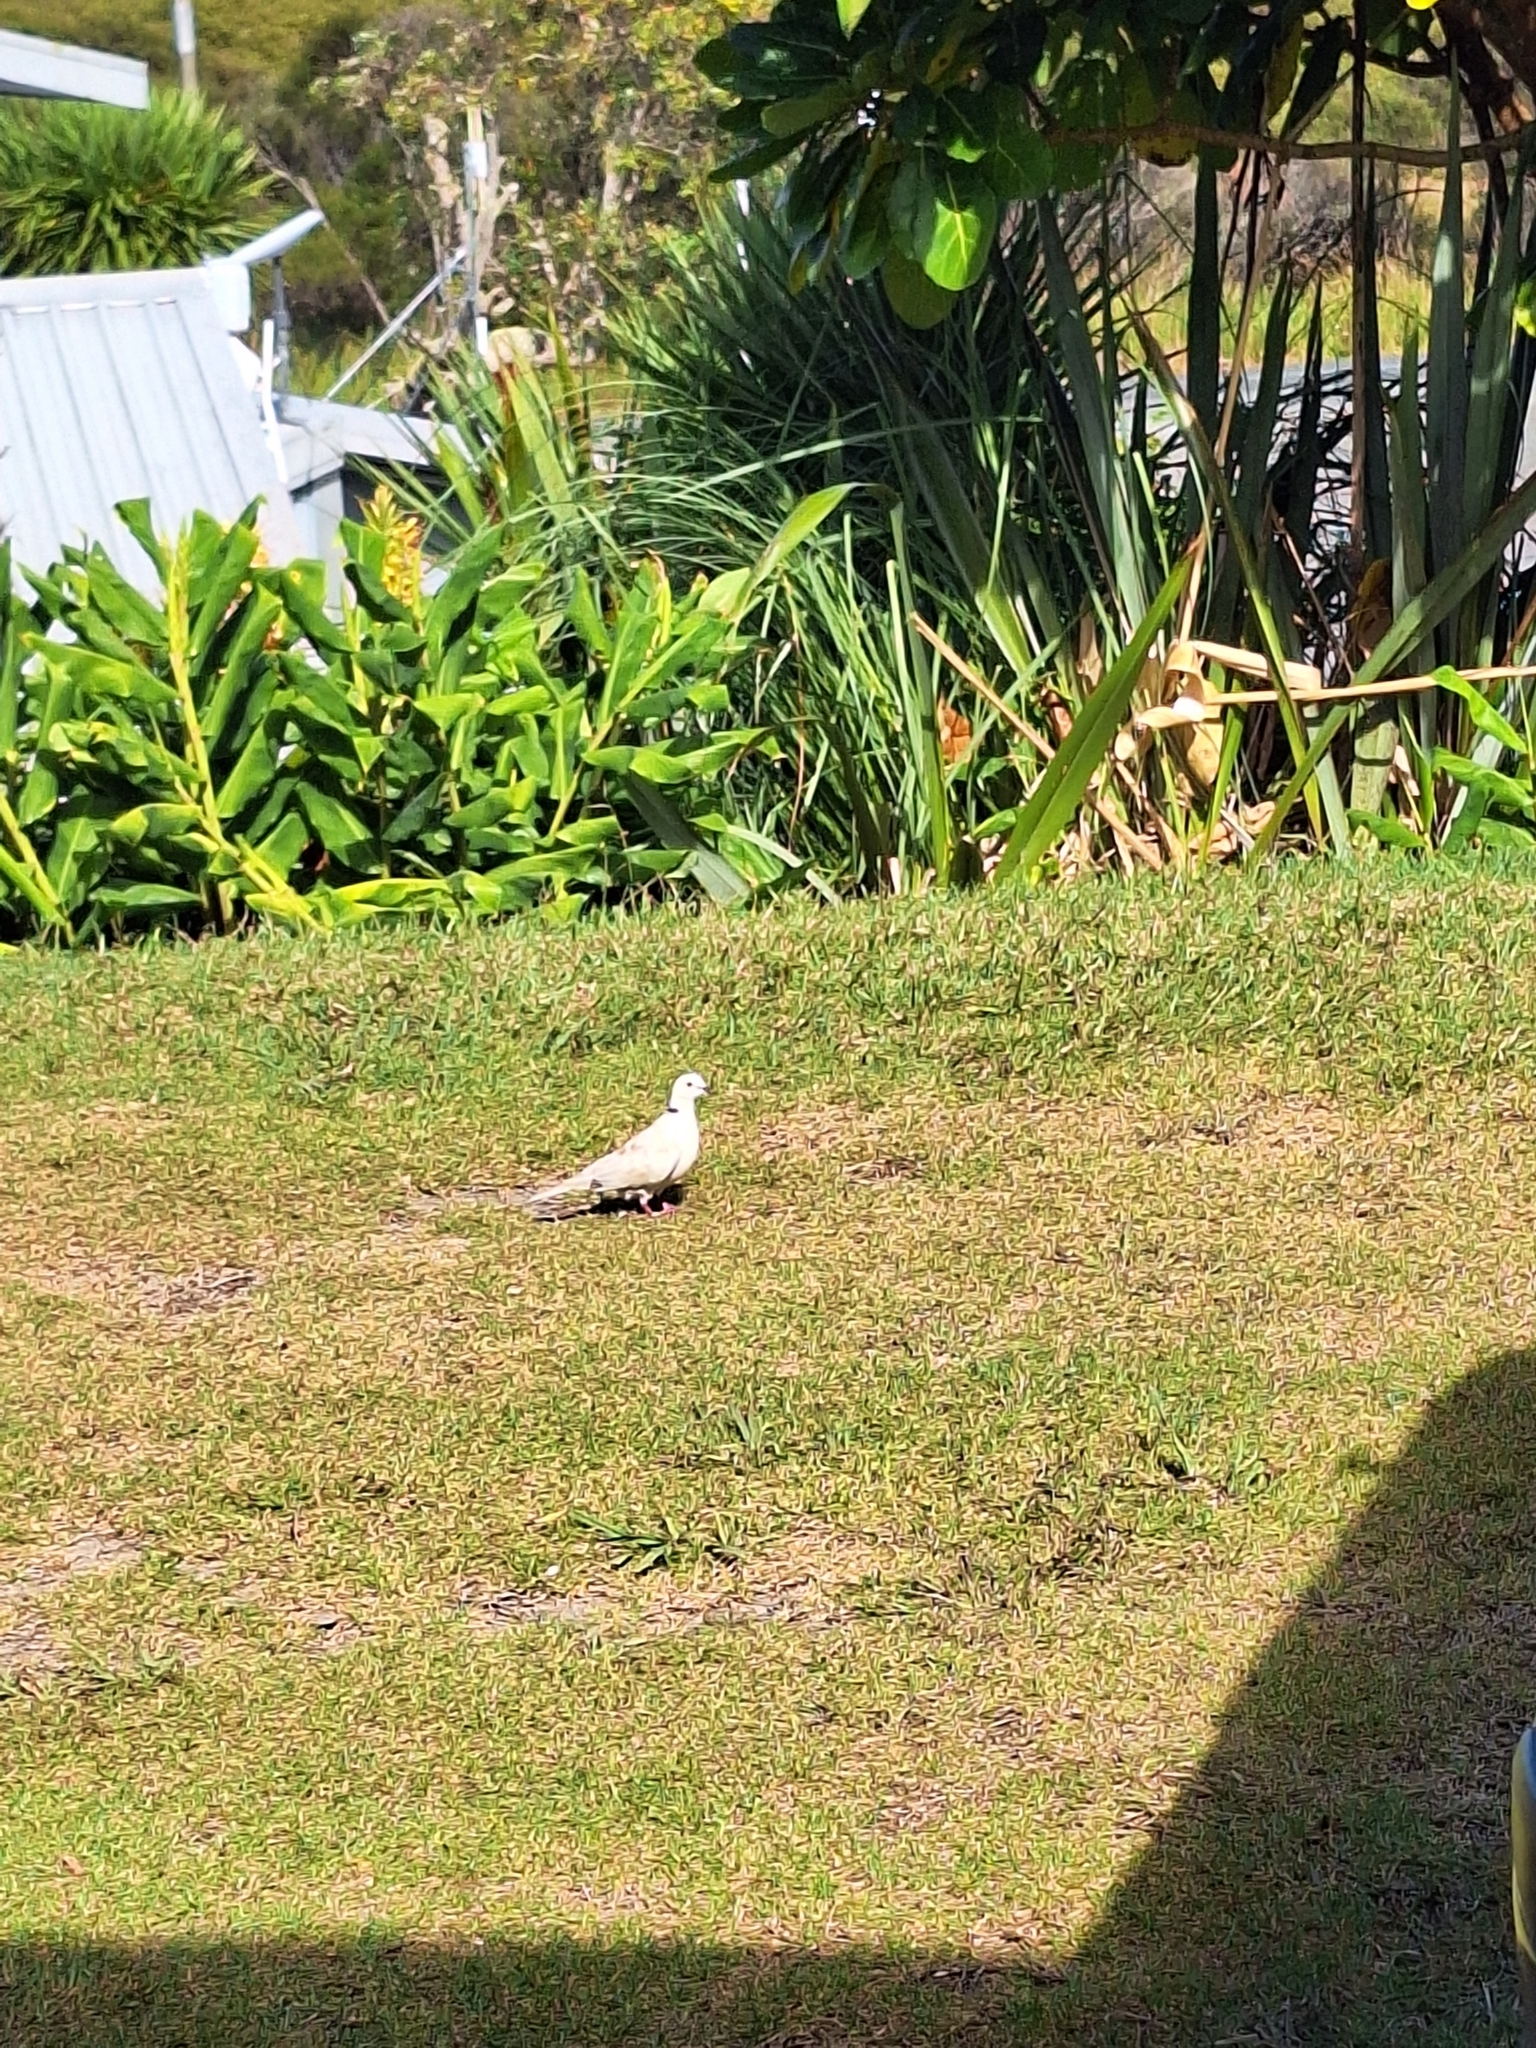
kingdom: Animalia
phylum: Chordata
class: Aves
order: Columbiformes
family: Columbidae
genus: Streptopelia
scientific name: Streptopelia roseogrisea
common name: African collared dove
